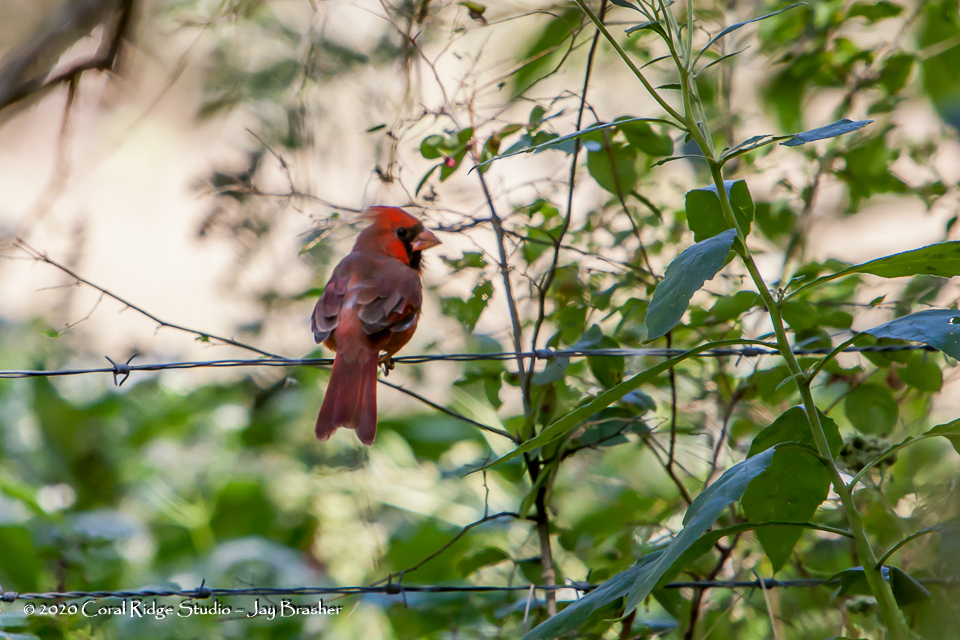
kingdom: Animalia
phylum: Chordata
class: Aves
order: Passeriformes
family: Cardinalidae
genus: Cardinalis
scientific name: Cardinalis cardinalis
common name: Northern cardinal
